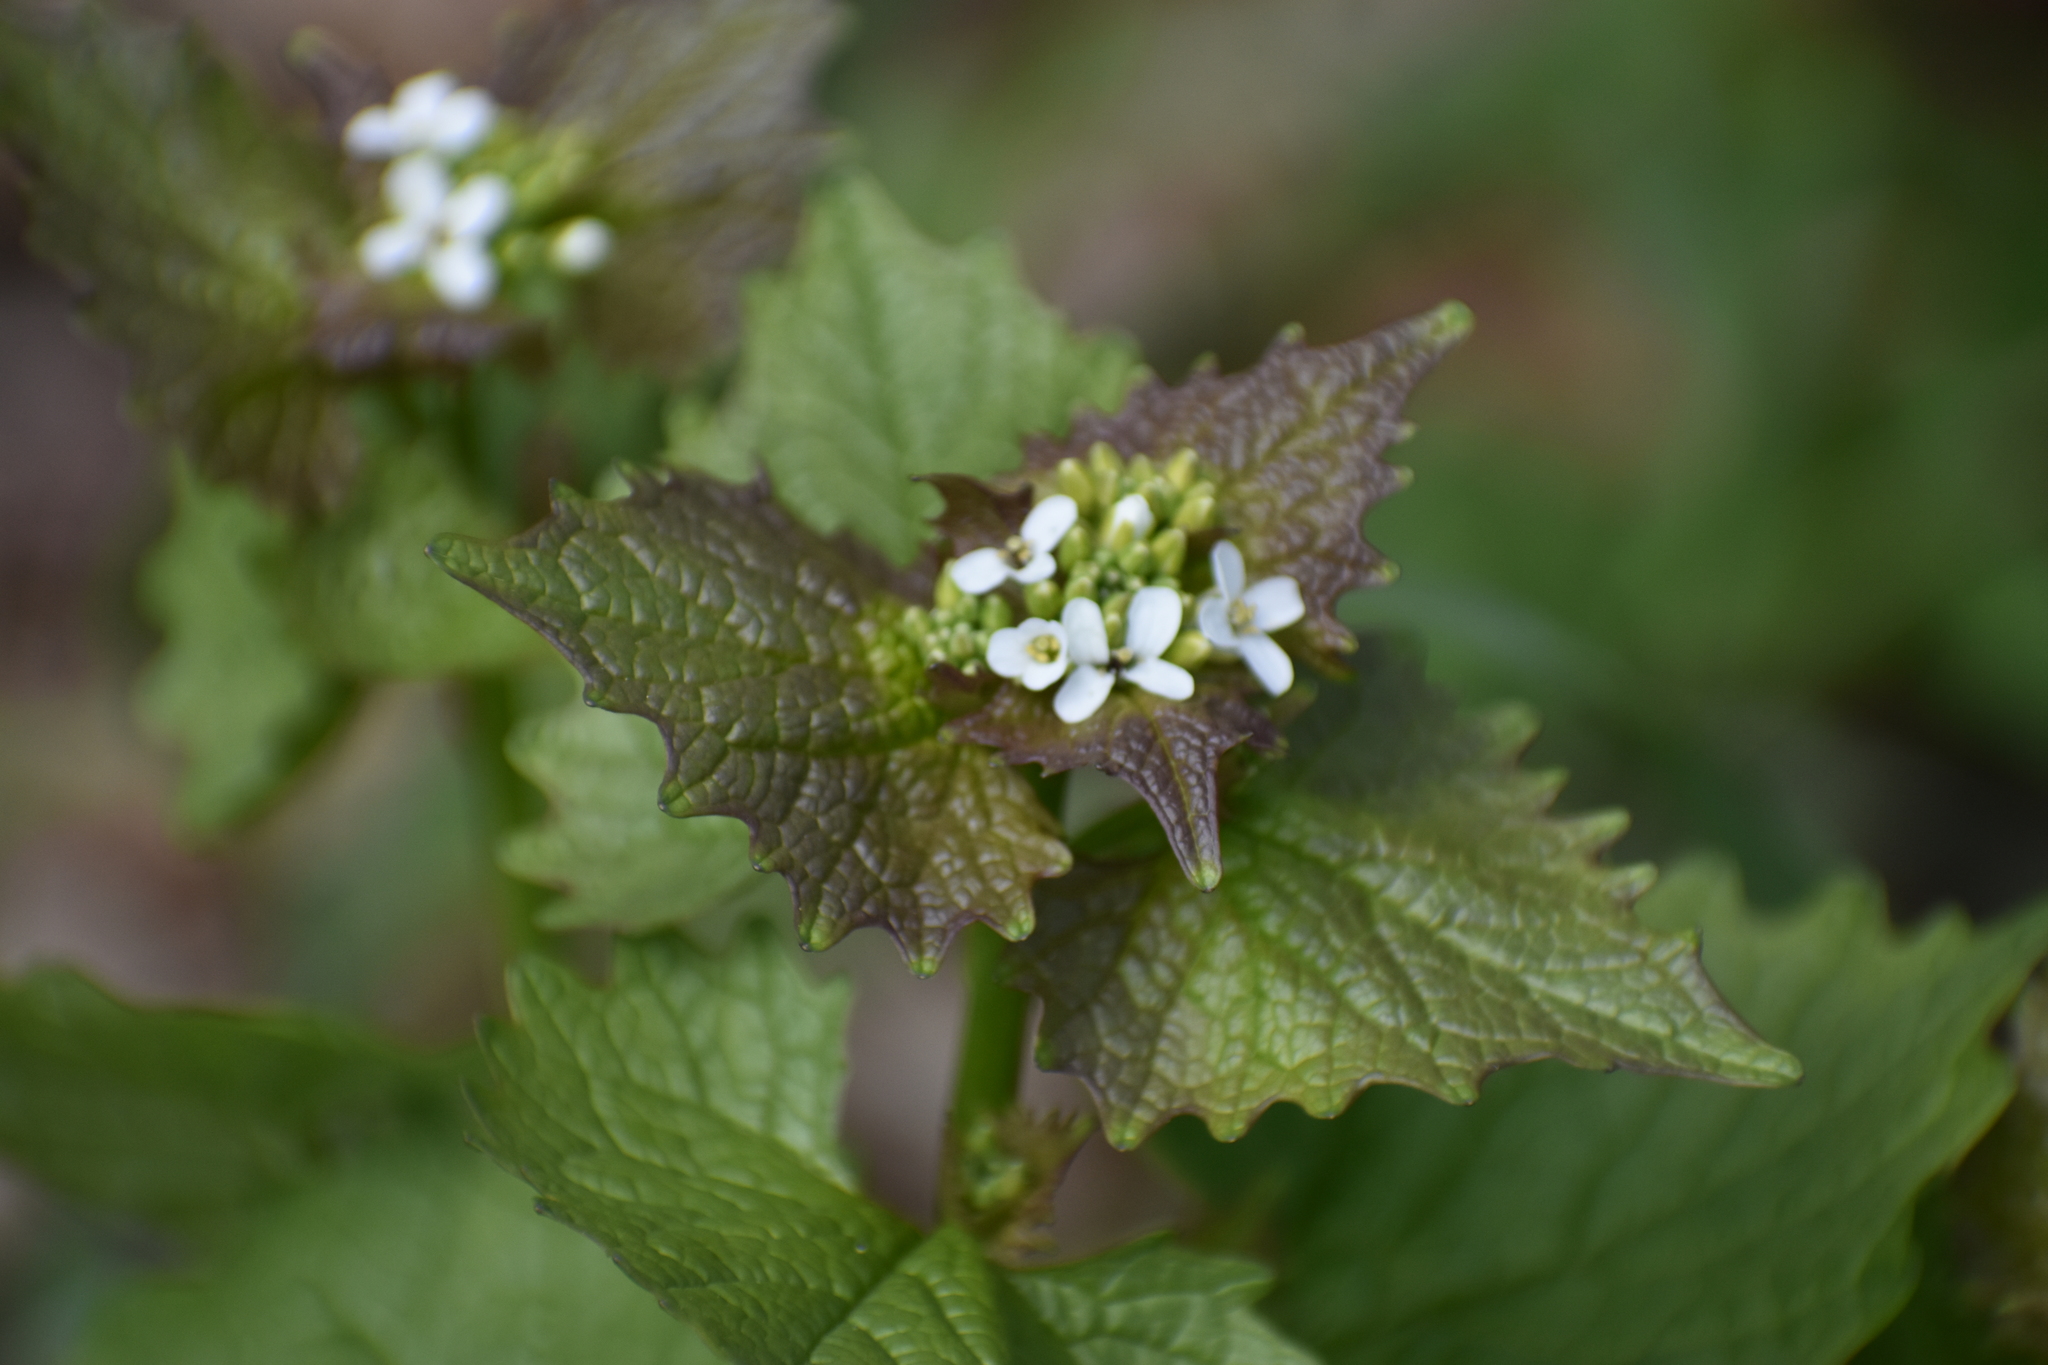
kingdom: Plantae
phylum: Tracheophyta
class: Magnoliopsida
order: Brassicales
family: Brassicaceae
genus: Alliaria
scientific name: Alliaria petiolata
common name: Garlic mustard
